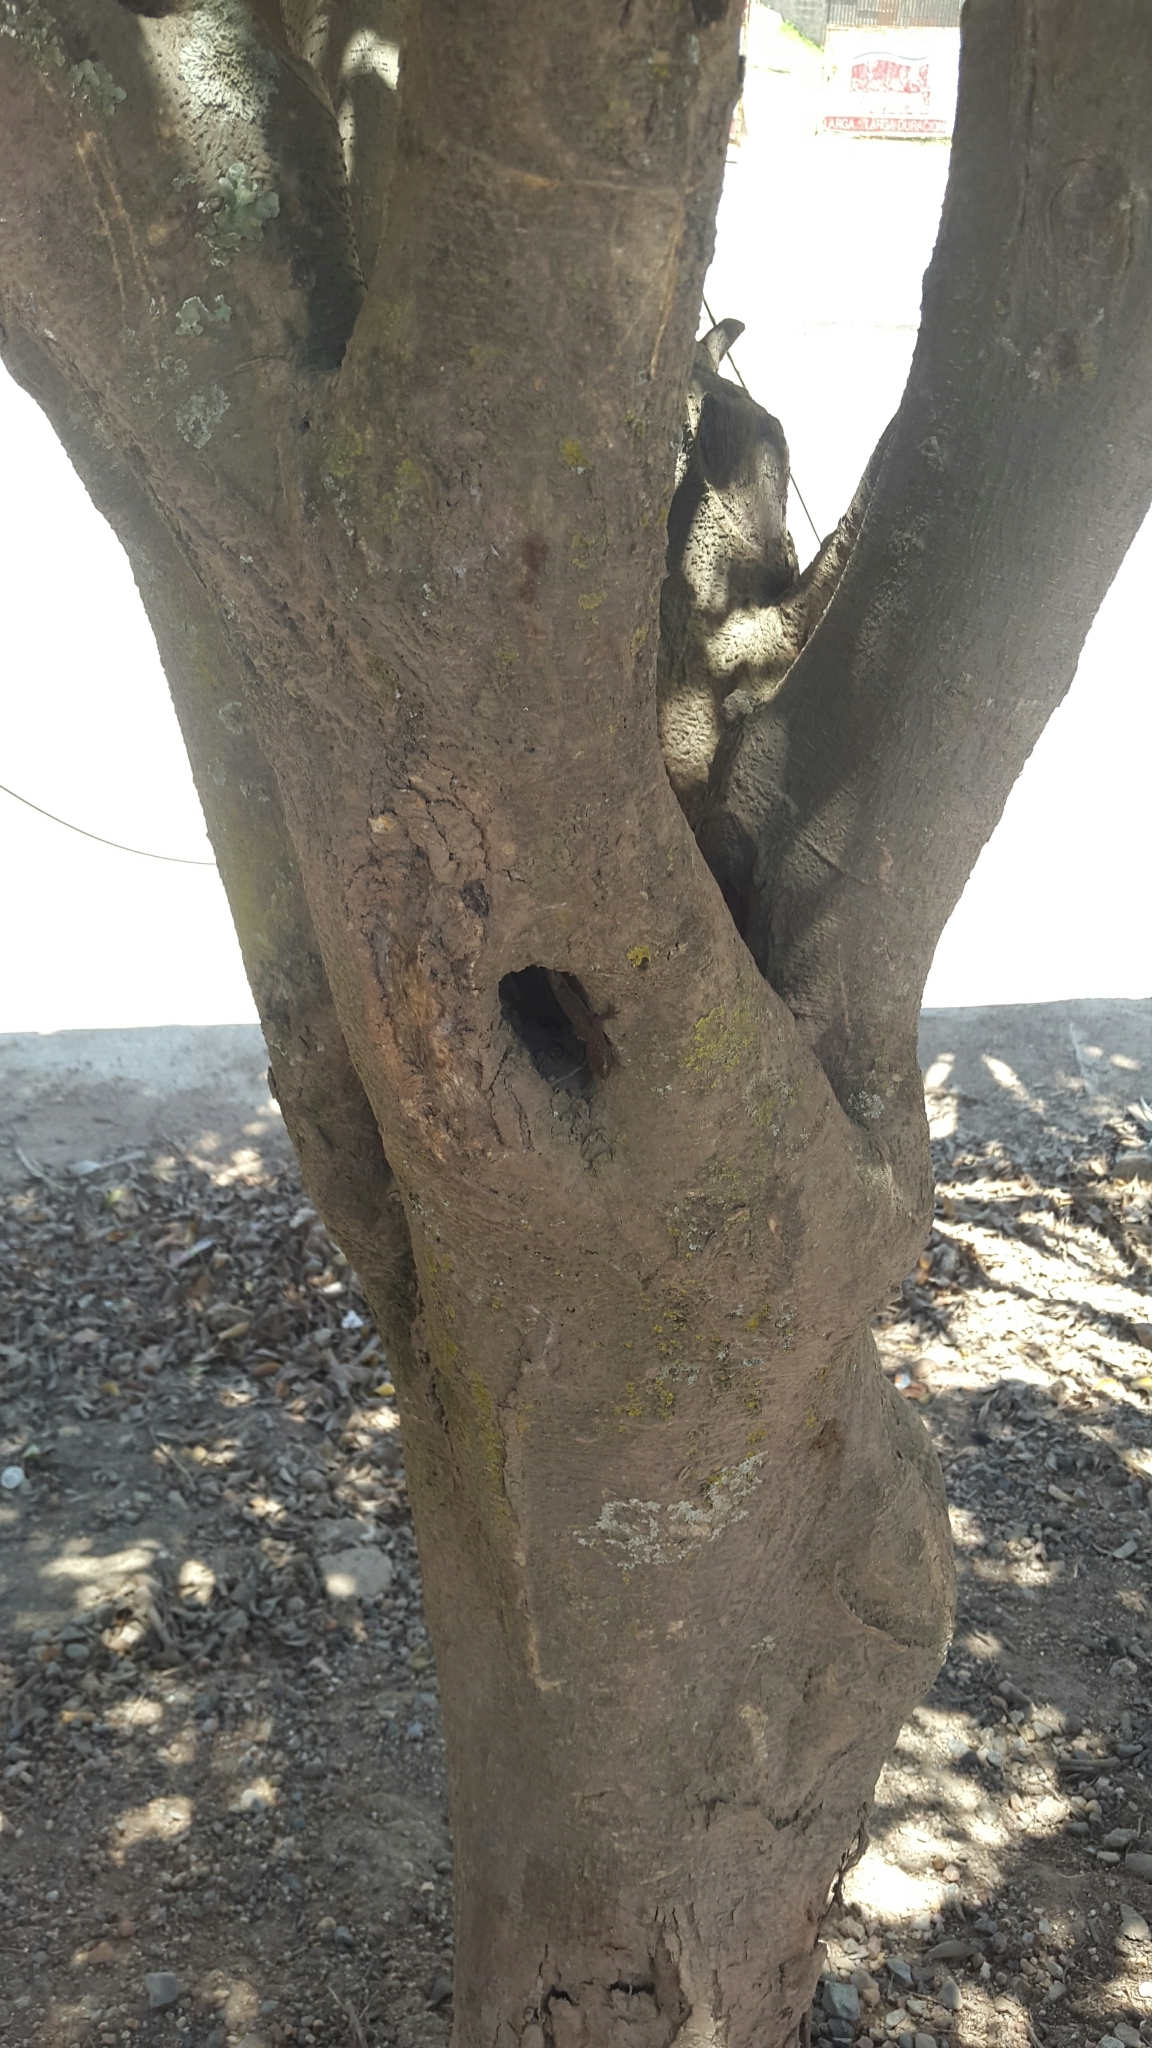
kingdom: Animalia
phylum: Chordata
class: Squamata
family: Gekkonidae
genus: Hemidactylus
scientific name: Hemidactylus frenatus
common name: Common house gecko
